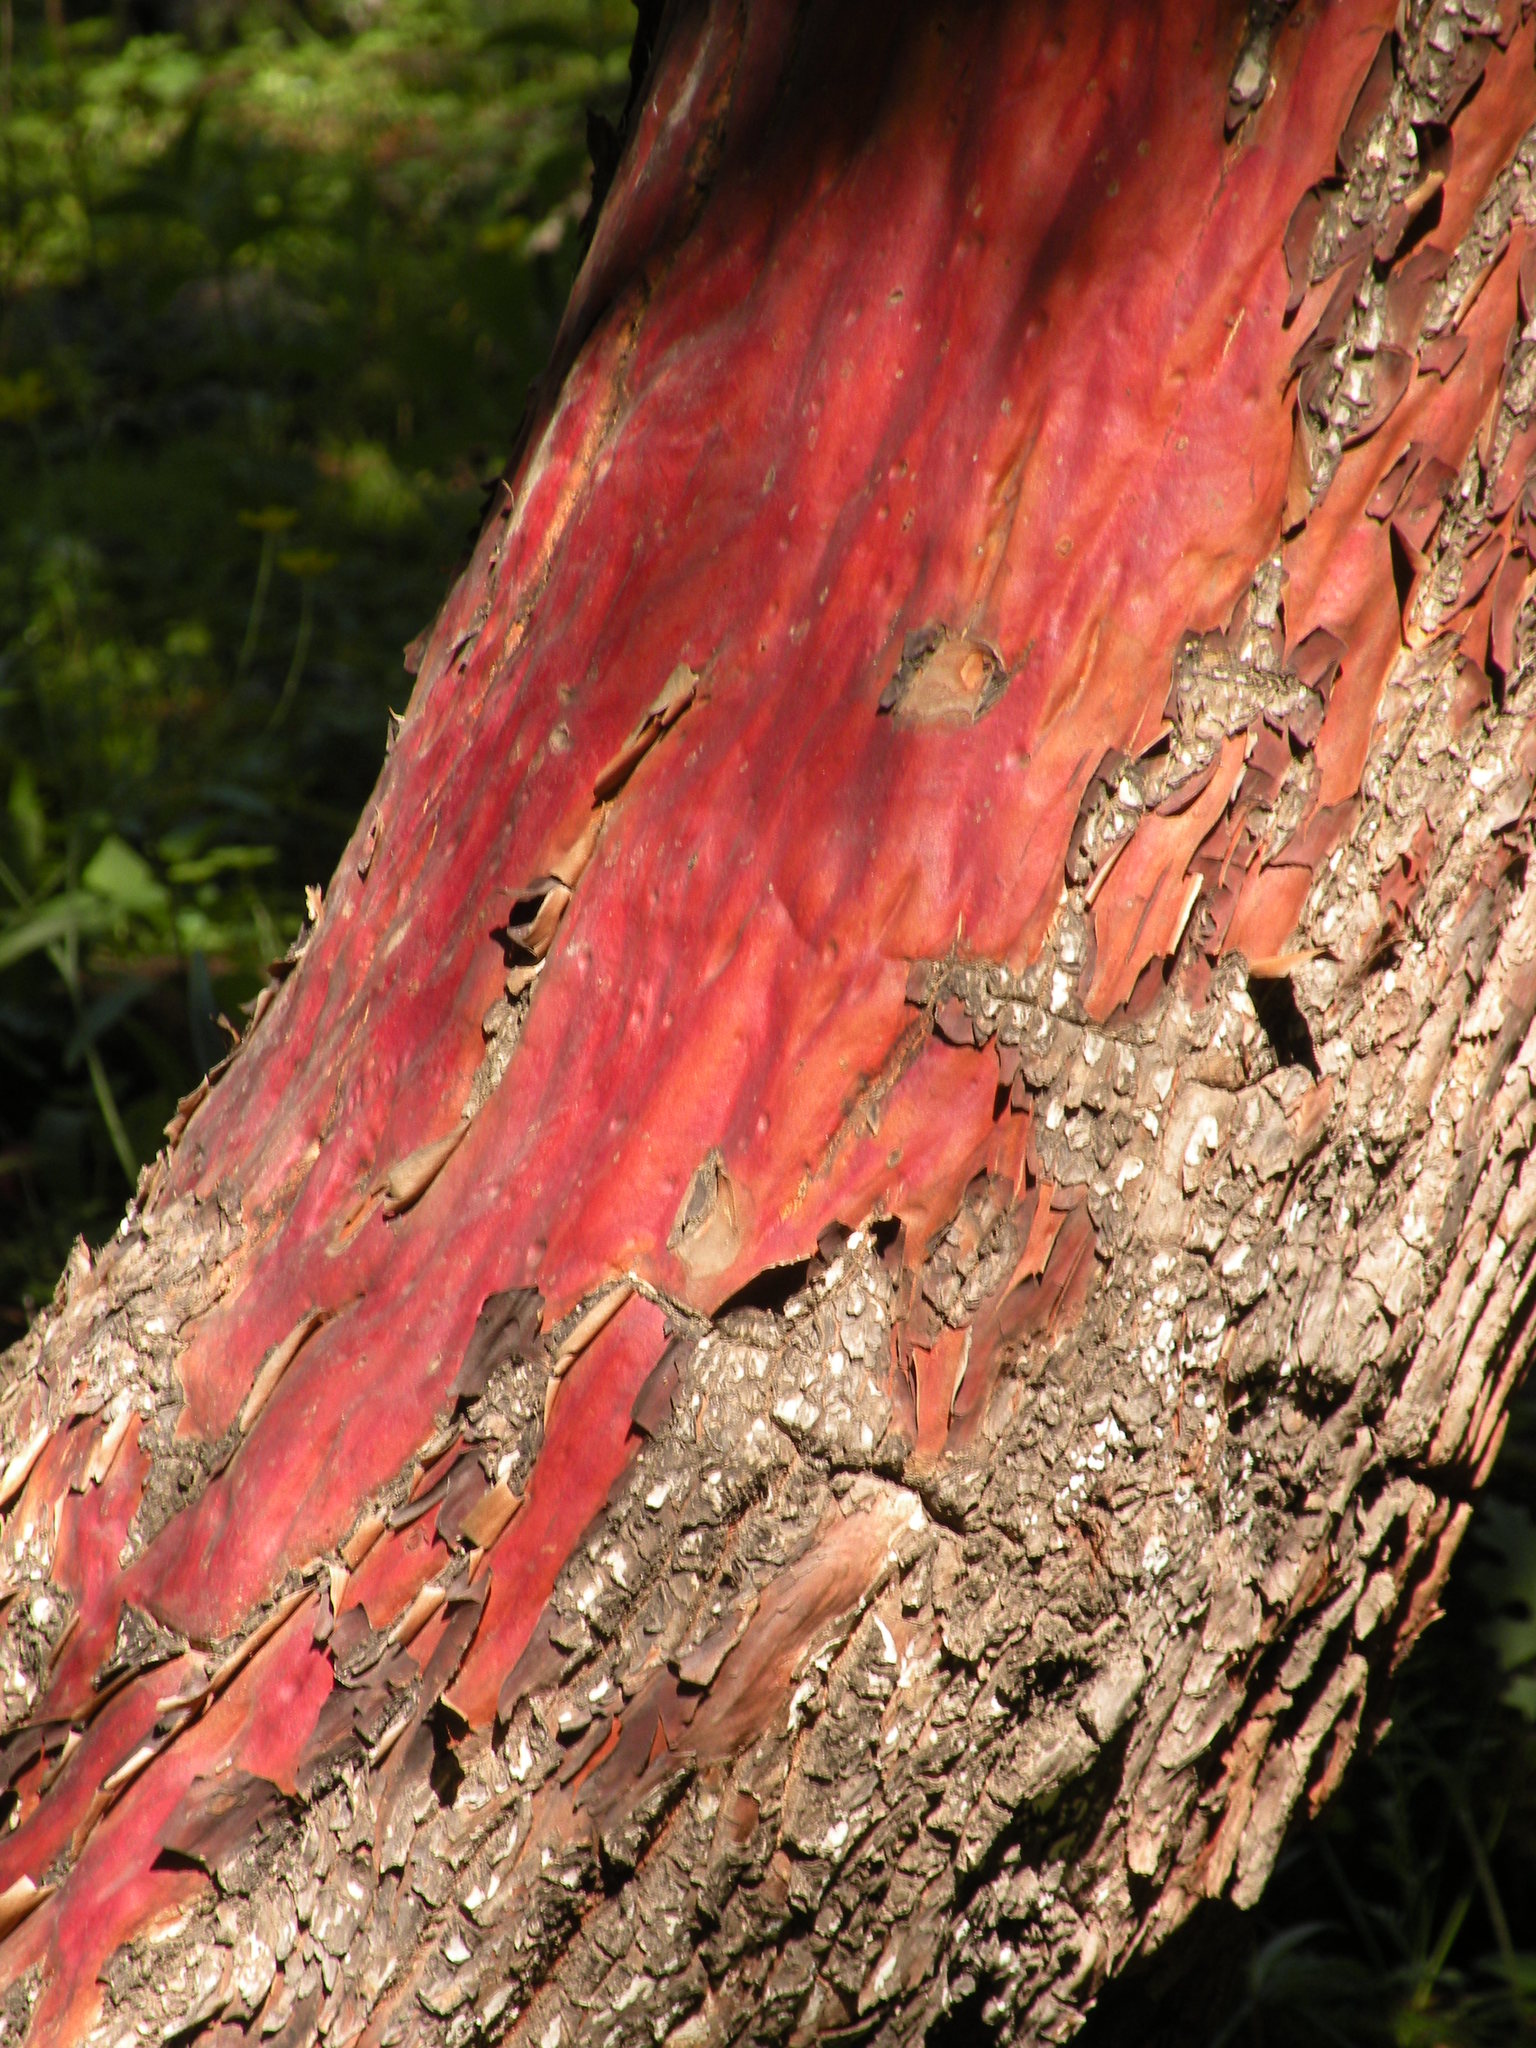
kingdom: Plantae
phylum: Tracheophyta
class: Magnoliopsida
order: Ericales
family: Ericaceae
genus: Arbutus
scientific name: Arbutus arizonica
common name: Arizona madrone
